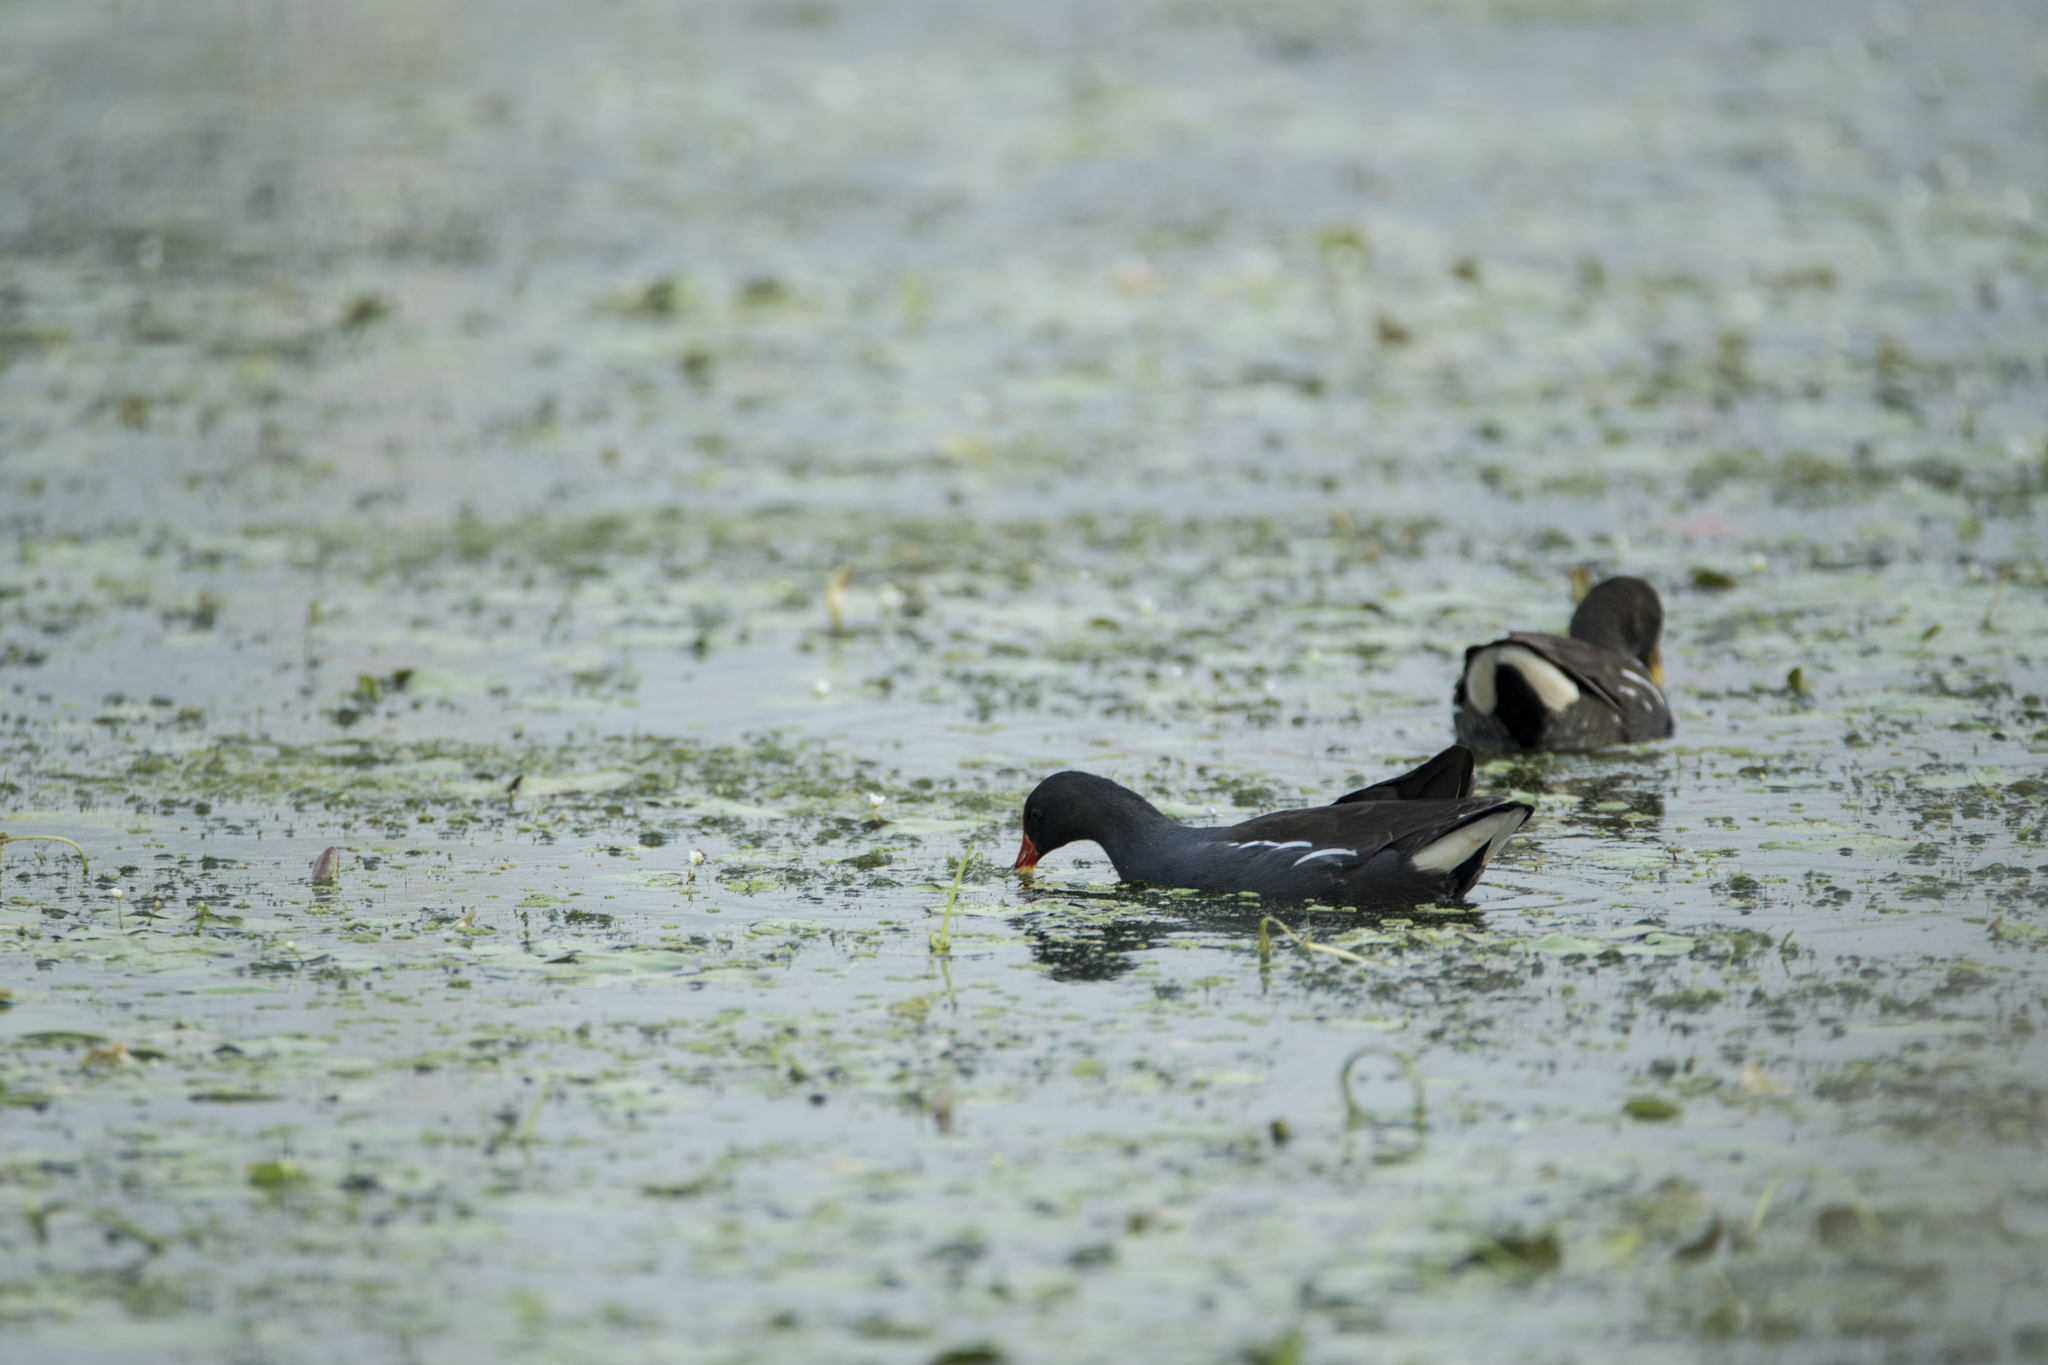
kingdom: Animalia
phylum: Chordata
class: Aves
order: Gruiformes
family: Rallidae
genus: Gallinula
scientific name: Gallinula chloropus
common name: Common moorhen
